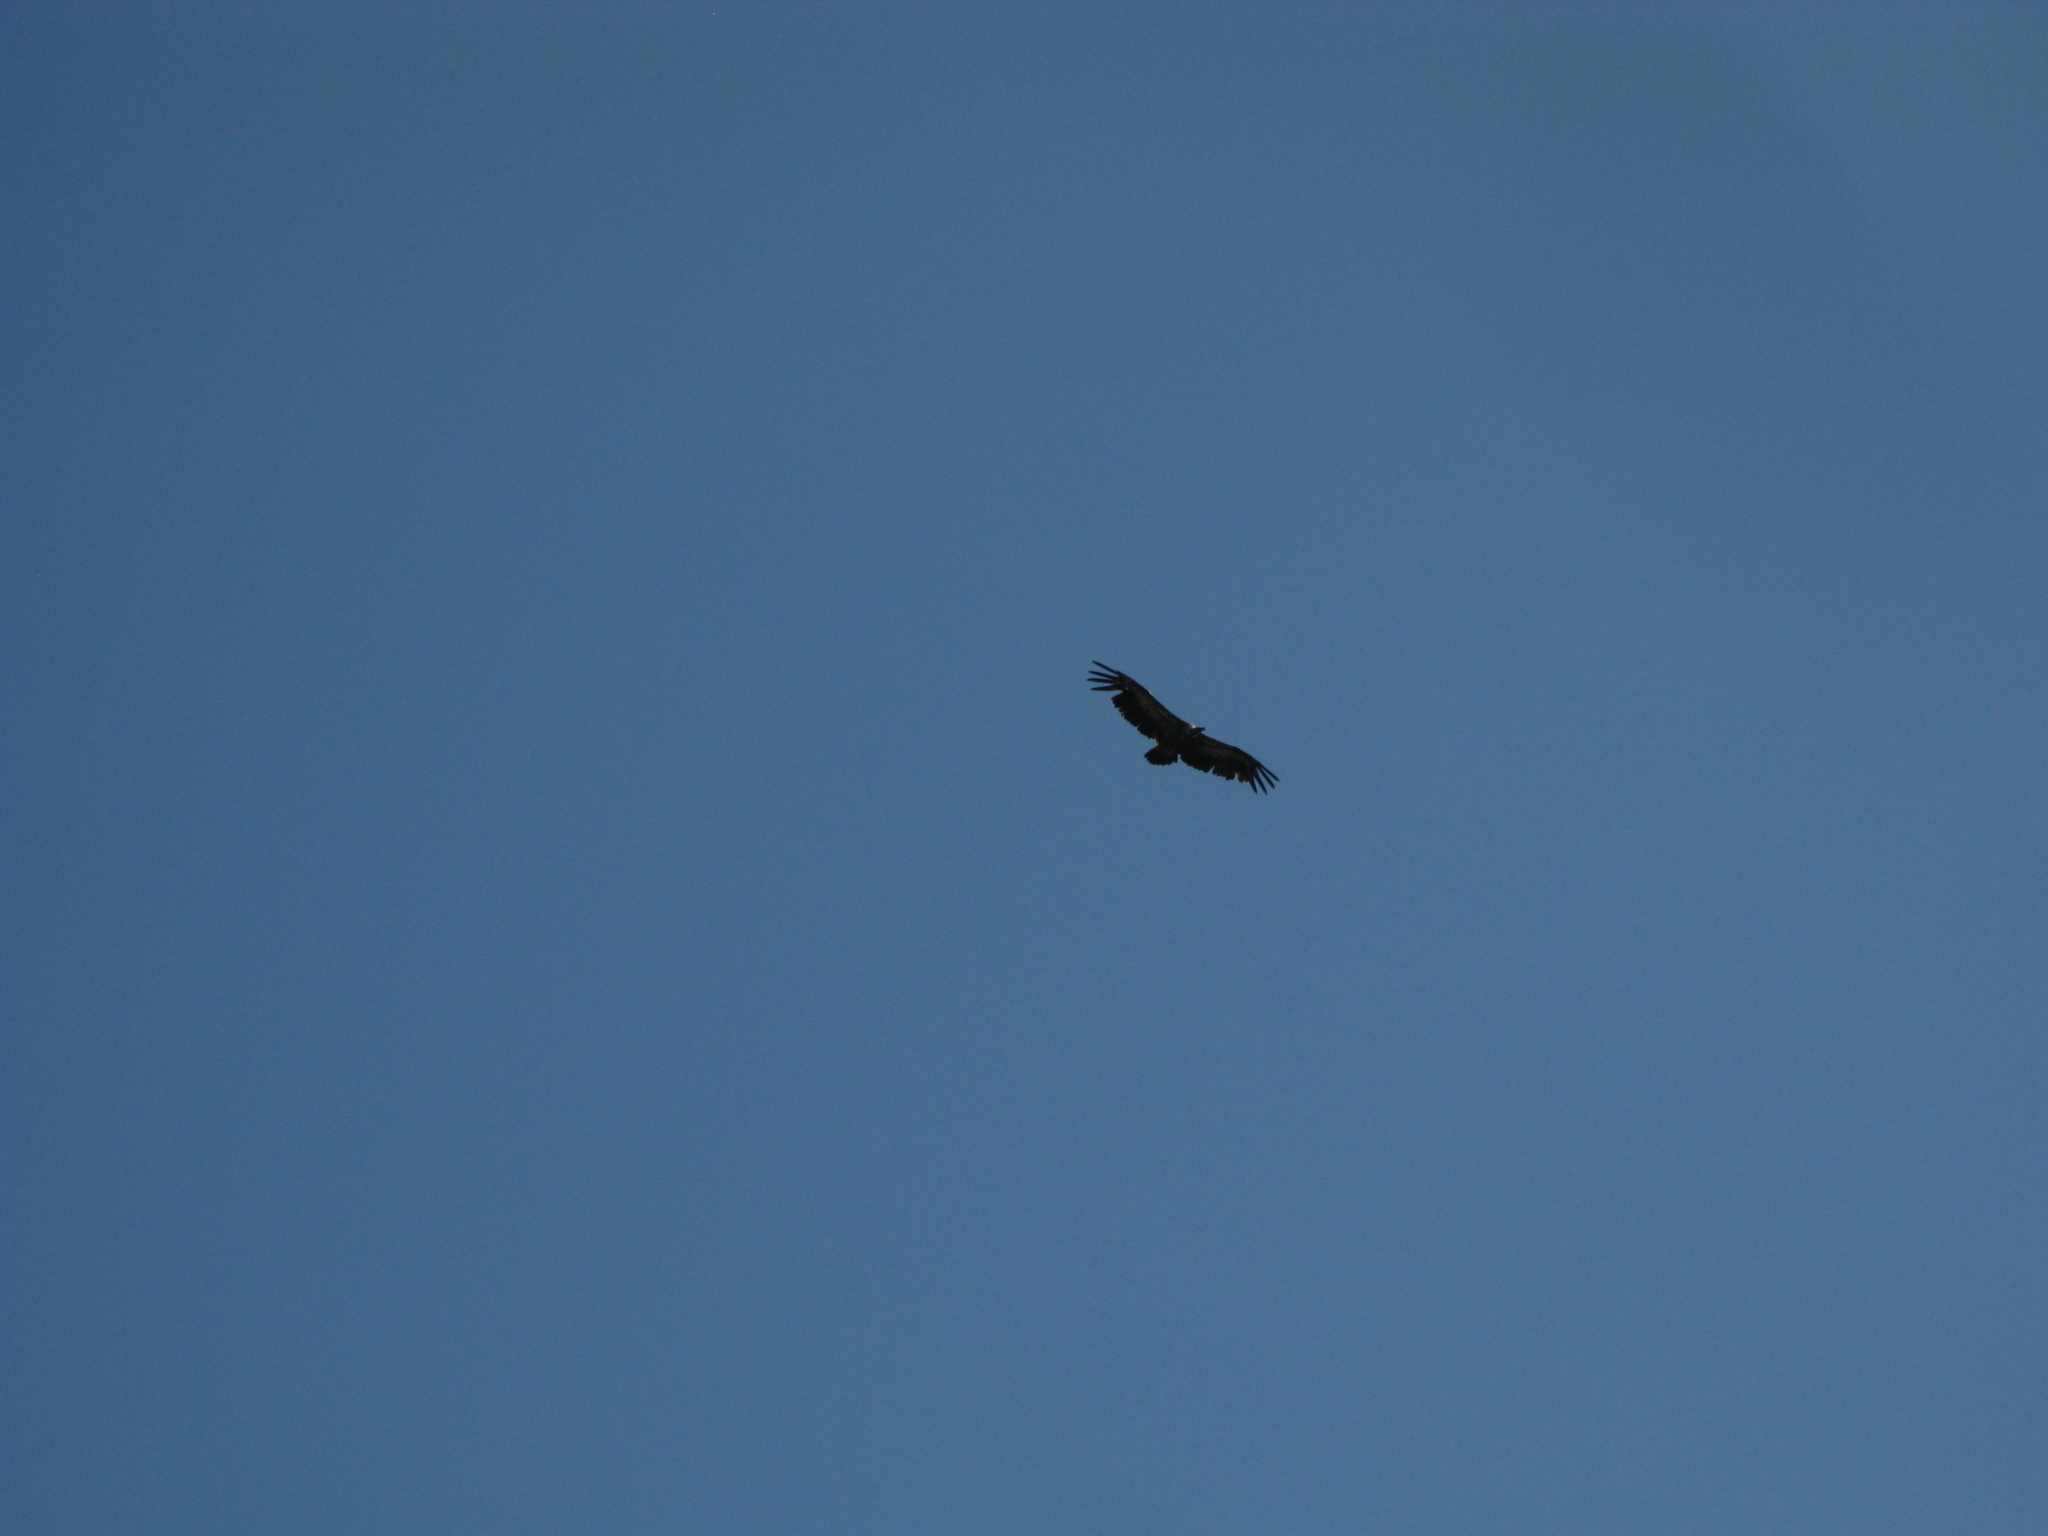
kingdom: Animalia
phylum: Chordata
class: Aves
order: Accipitriformes
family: Accipitridae
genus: Gyps
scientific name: Gyps fulvus
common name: Griffon vulture
